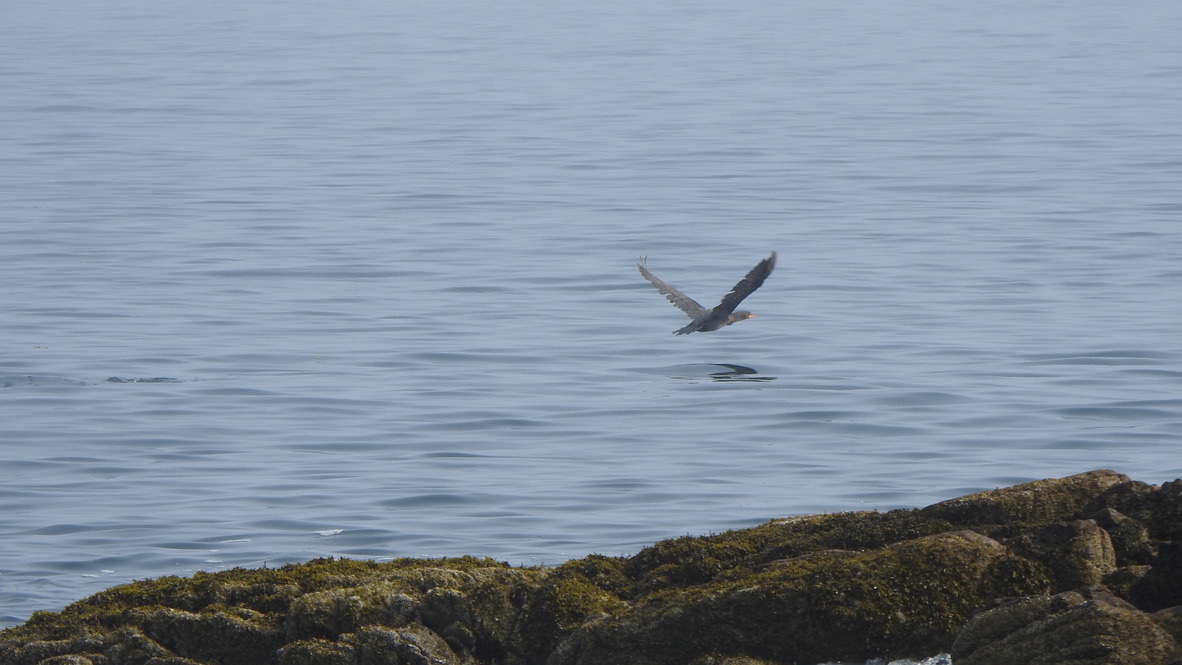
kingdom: Animalia
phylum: Chordata
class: Aves
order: Suliformes
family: Phalacrocoracidae
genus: Phalacrocorax
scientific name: Phalacrocorax auritus
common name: Double-crested cormorant
